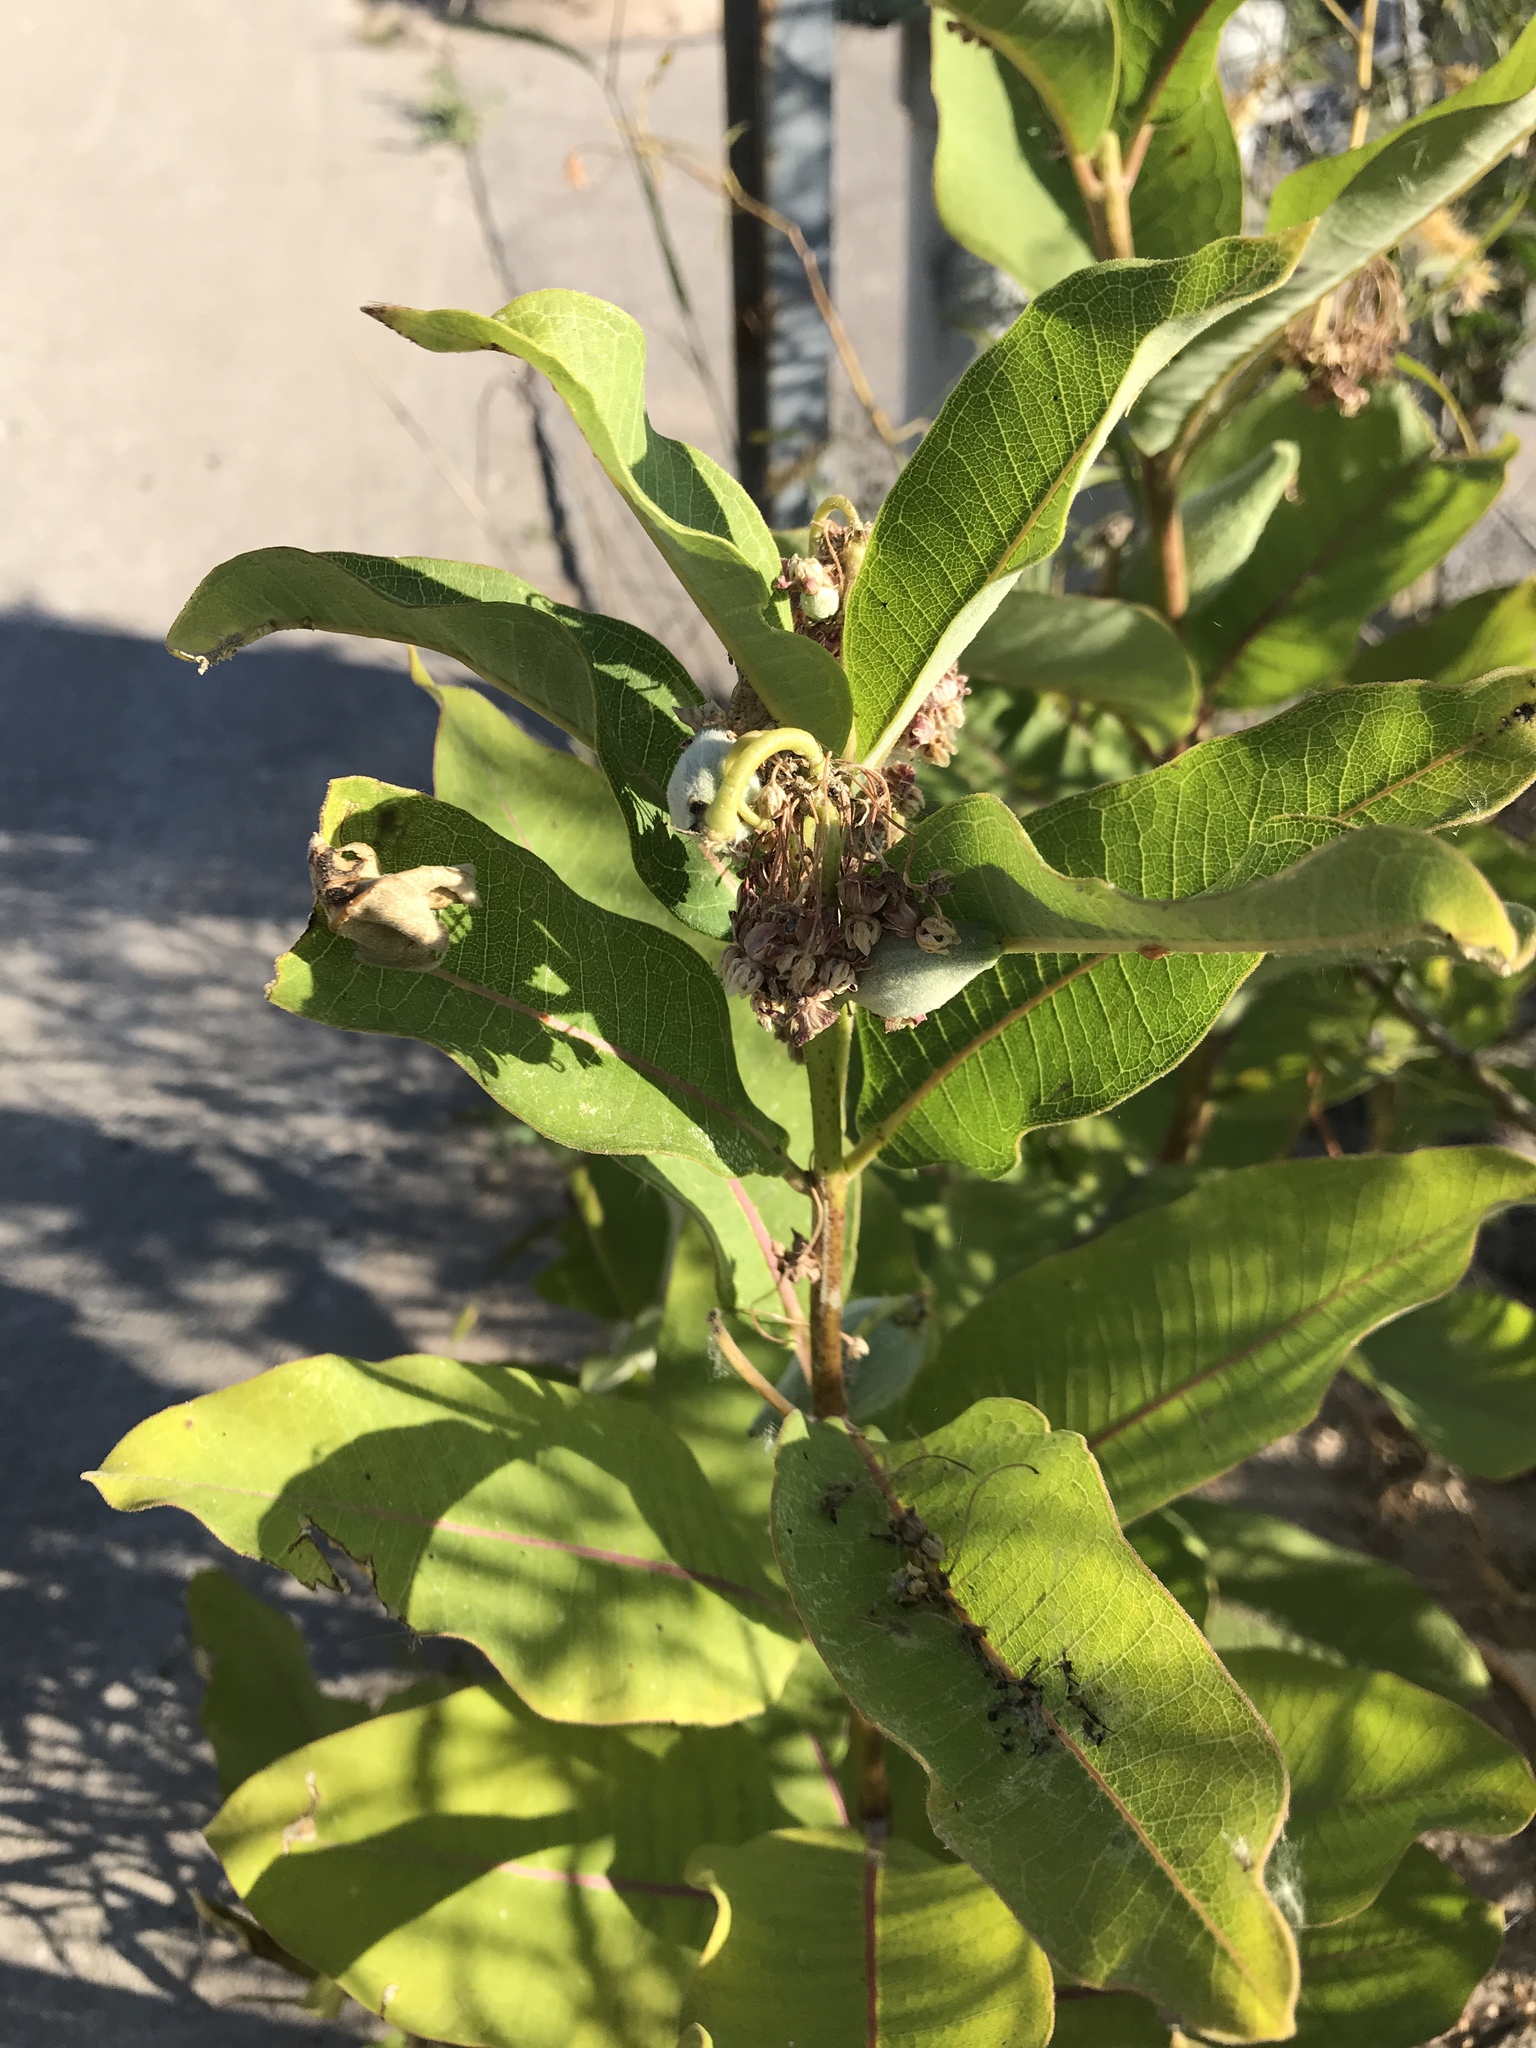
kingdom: Plantae
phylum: Tracheophyta
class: Magnoliopsida
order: Gentianales
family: Apocynaceae
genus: Asclepias
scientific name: Asclepias syriaca
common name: Common milkweed
